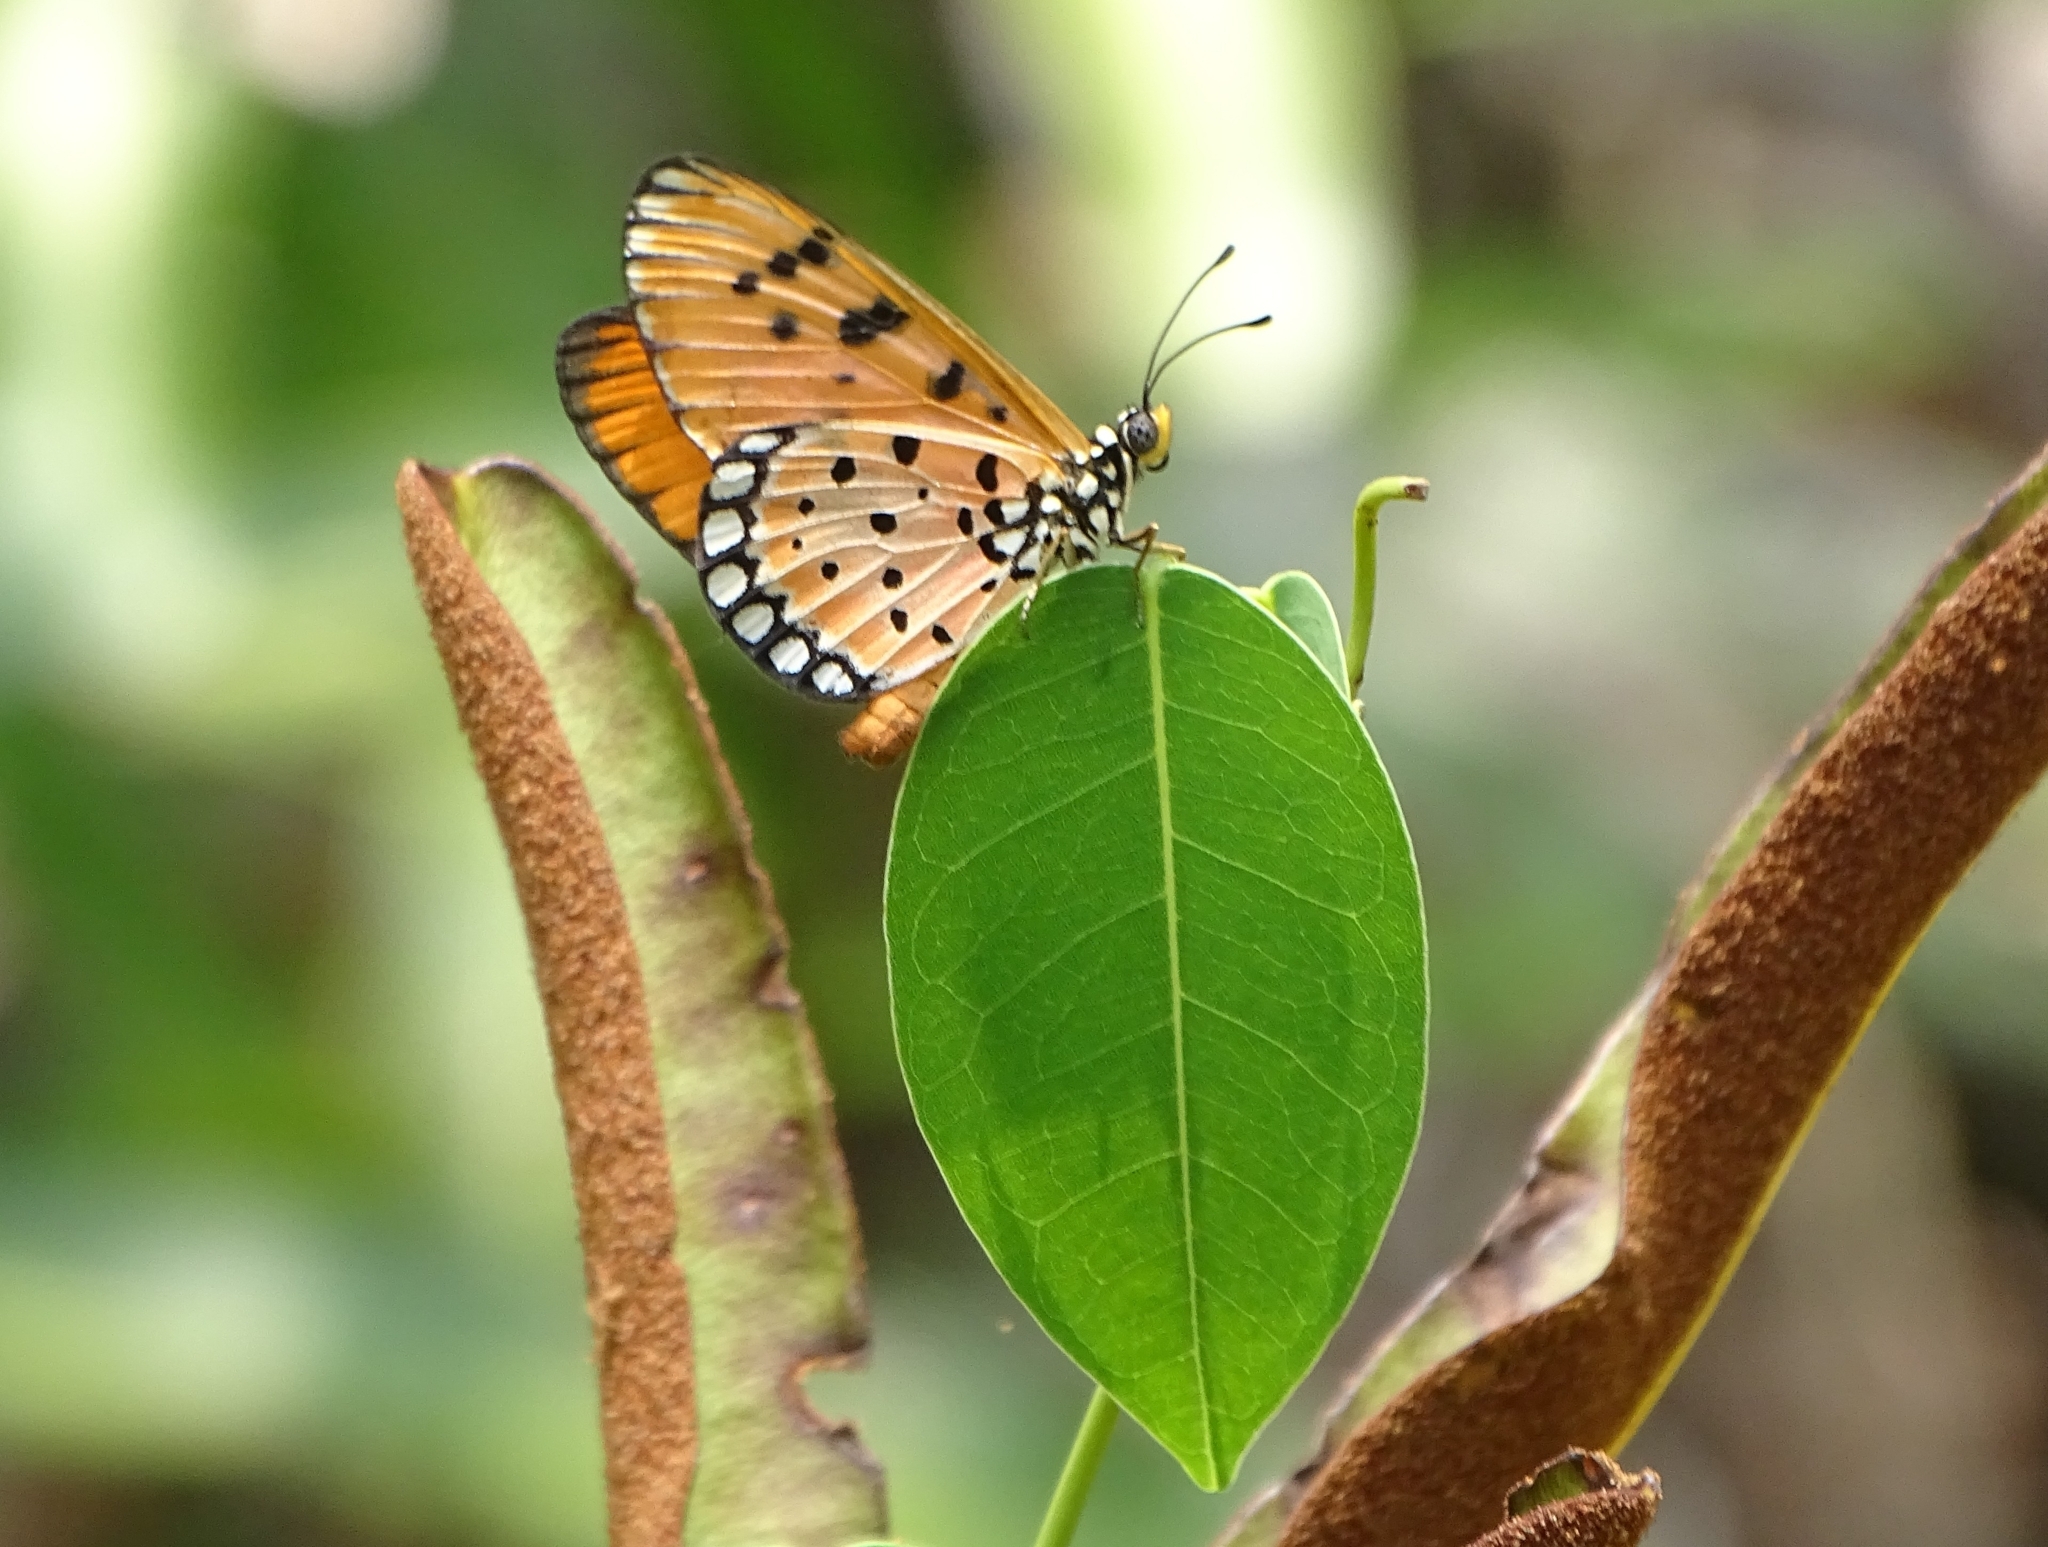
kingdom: Animalia
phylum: Arthropoda
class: Insecta
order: Lepidoptera
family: Nymphalidae
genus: Acraea
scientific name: Acraea terpsicore
